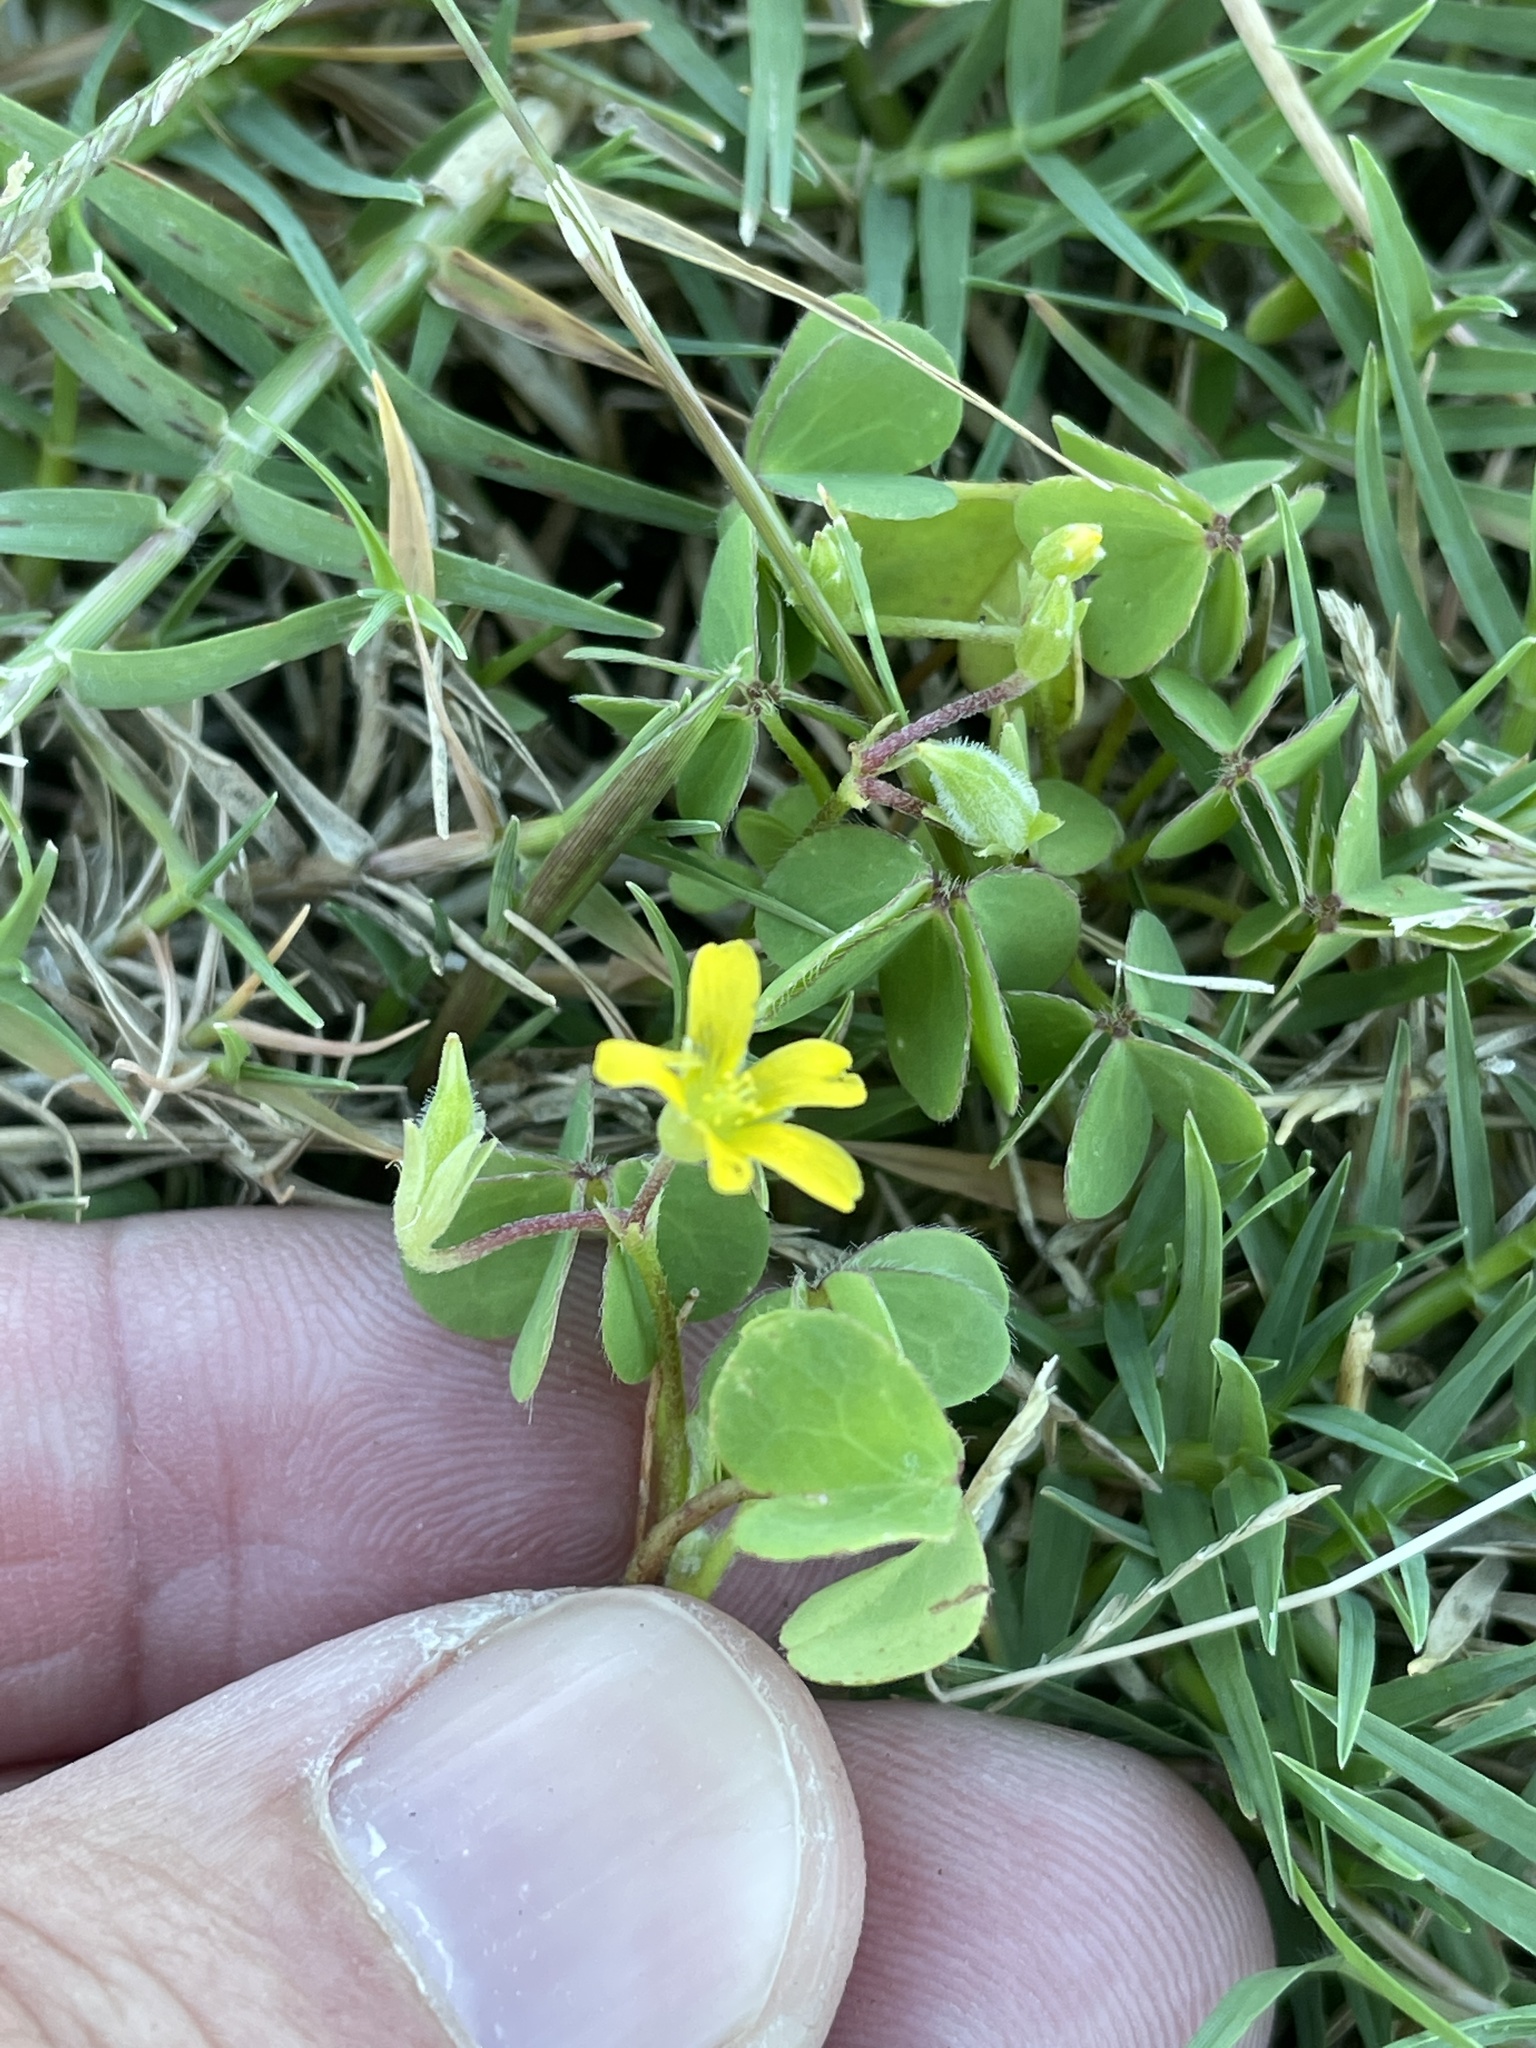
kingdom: Plantae
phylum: Tracheophyta
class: Magnoliopsida
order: Oxalidales
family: Oxalidaceae
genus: Oxalis
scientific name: Oxalis corniculata
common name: Procumbent yellow-sorrel
